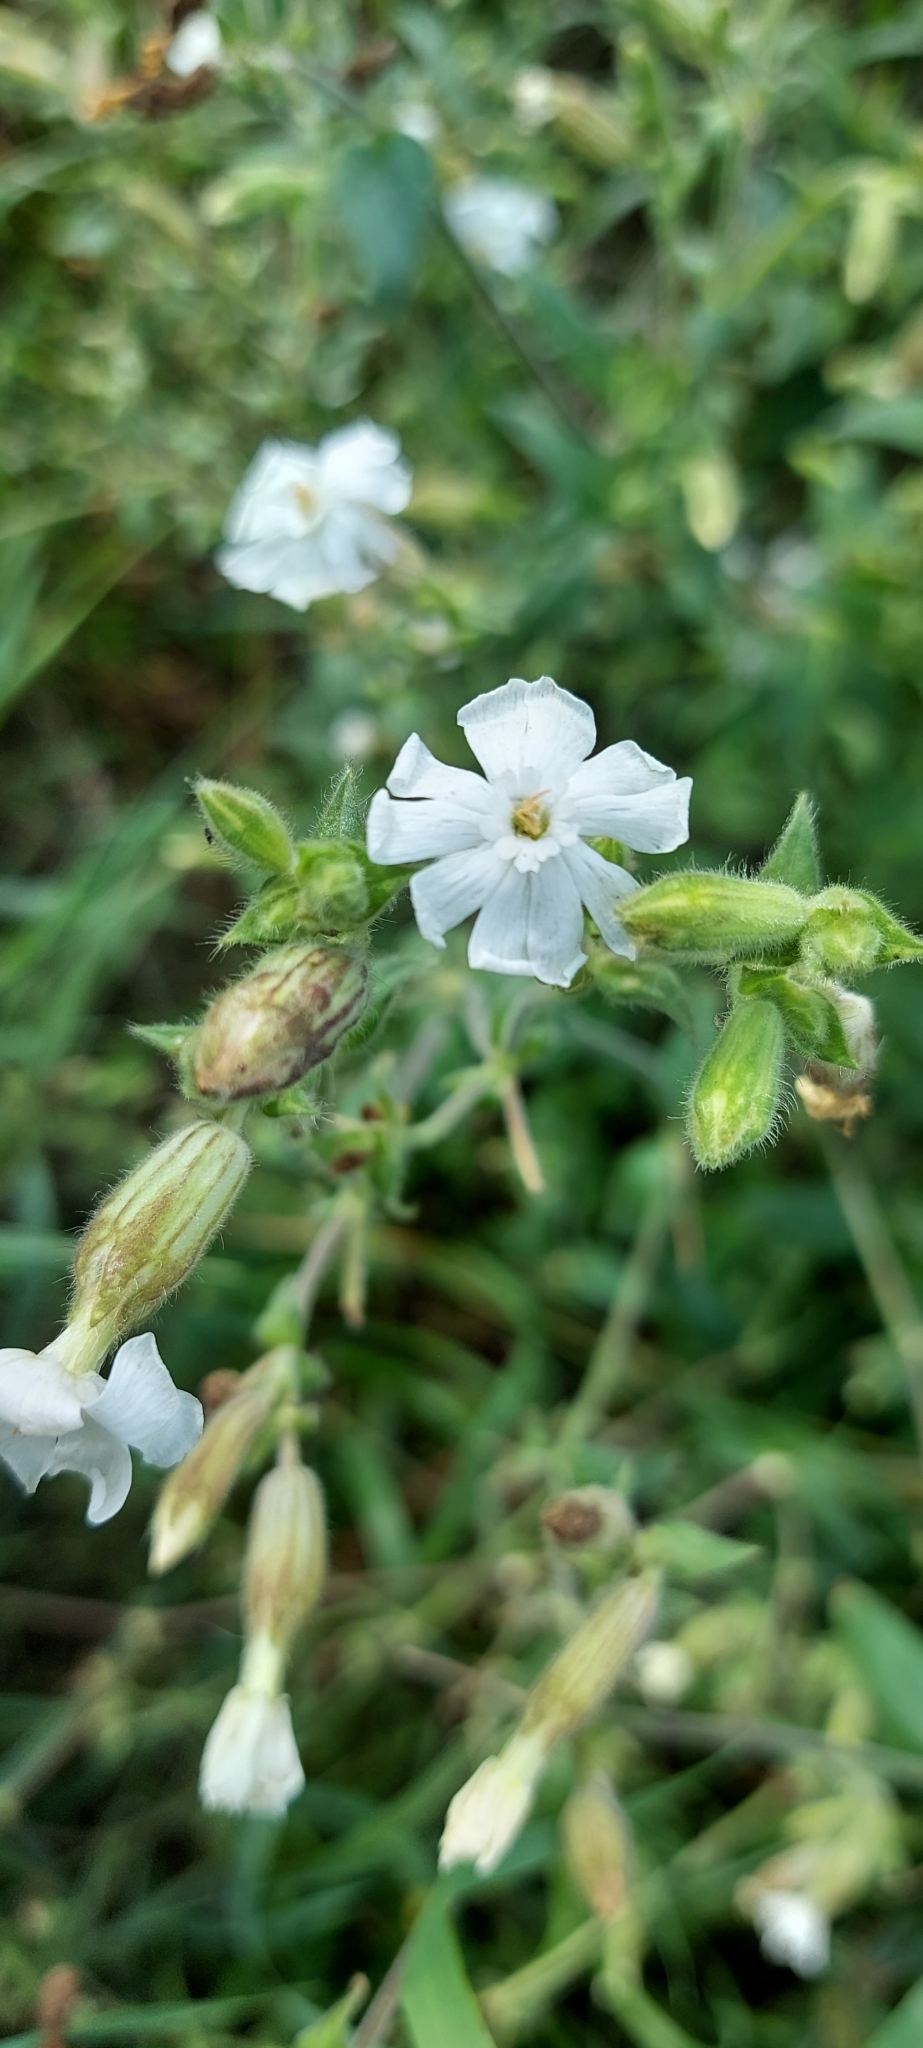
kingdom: Plantae
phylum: Tracheophyta
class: Magnoliopsida
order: Caryophyllales
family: Caryophyllaceae
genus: Silene
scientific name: Silene latifolia
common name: White campion
